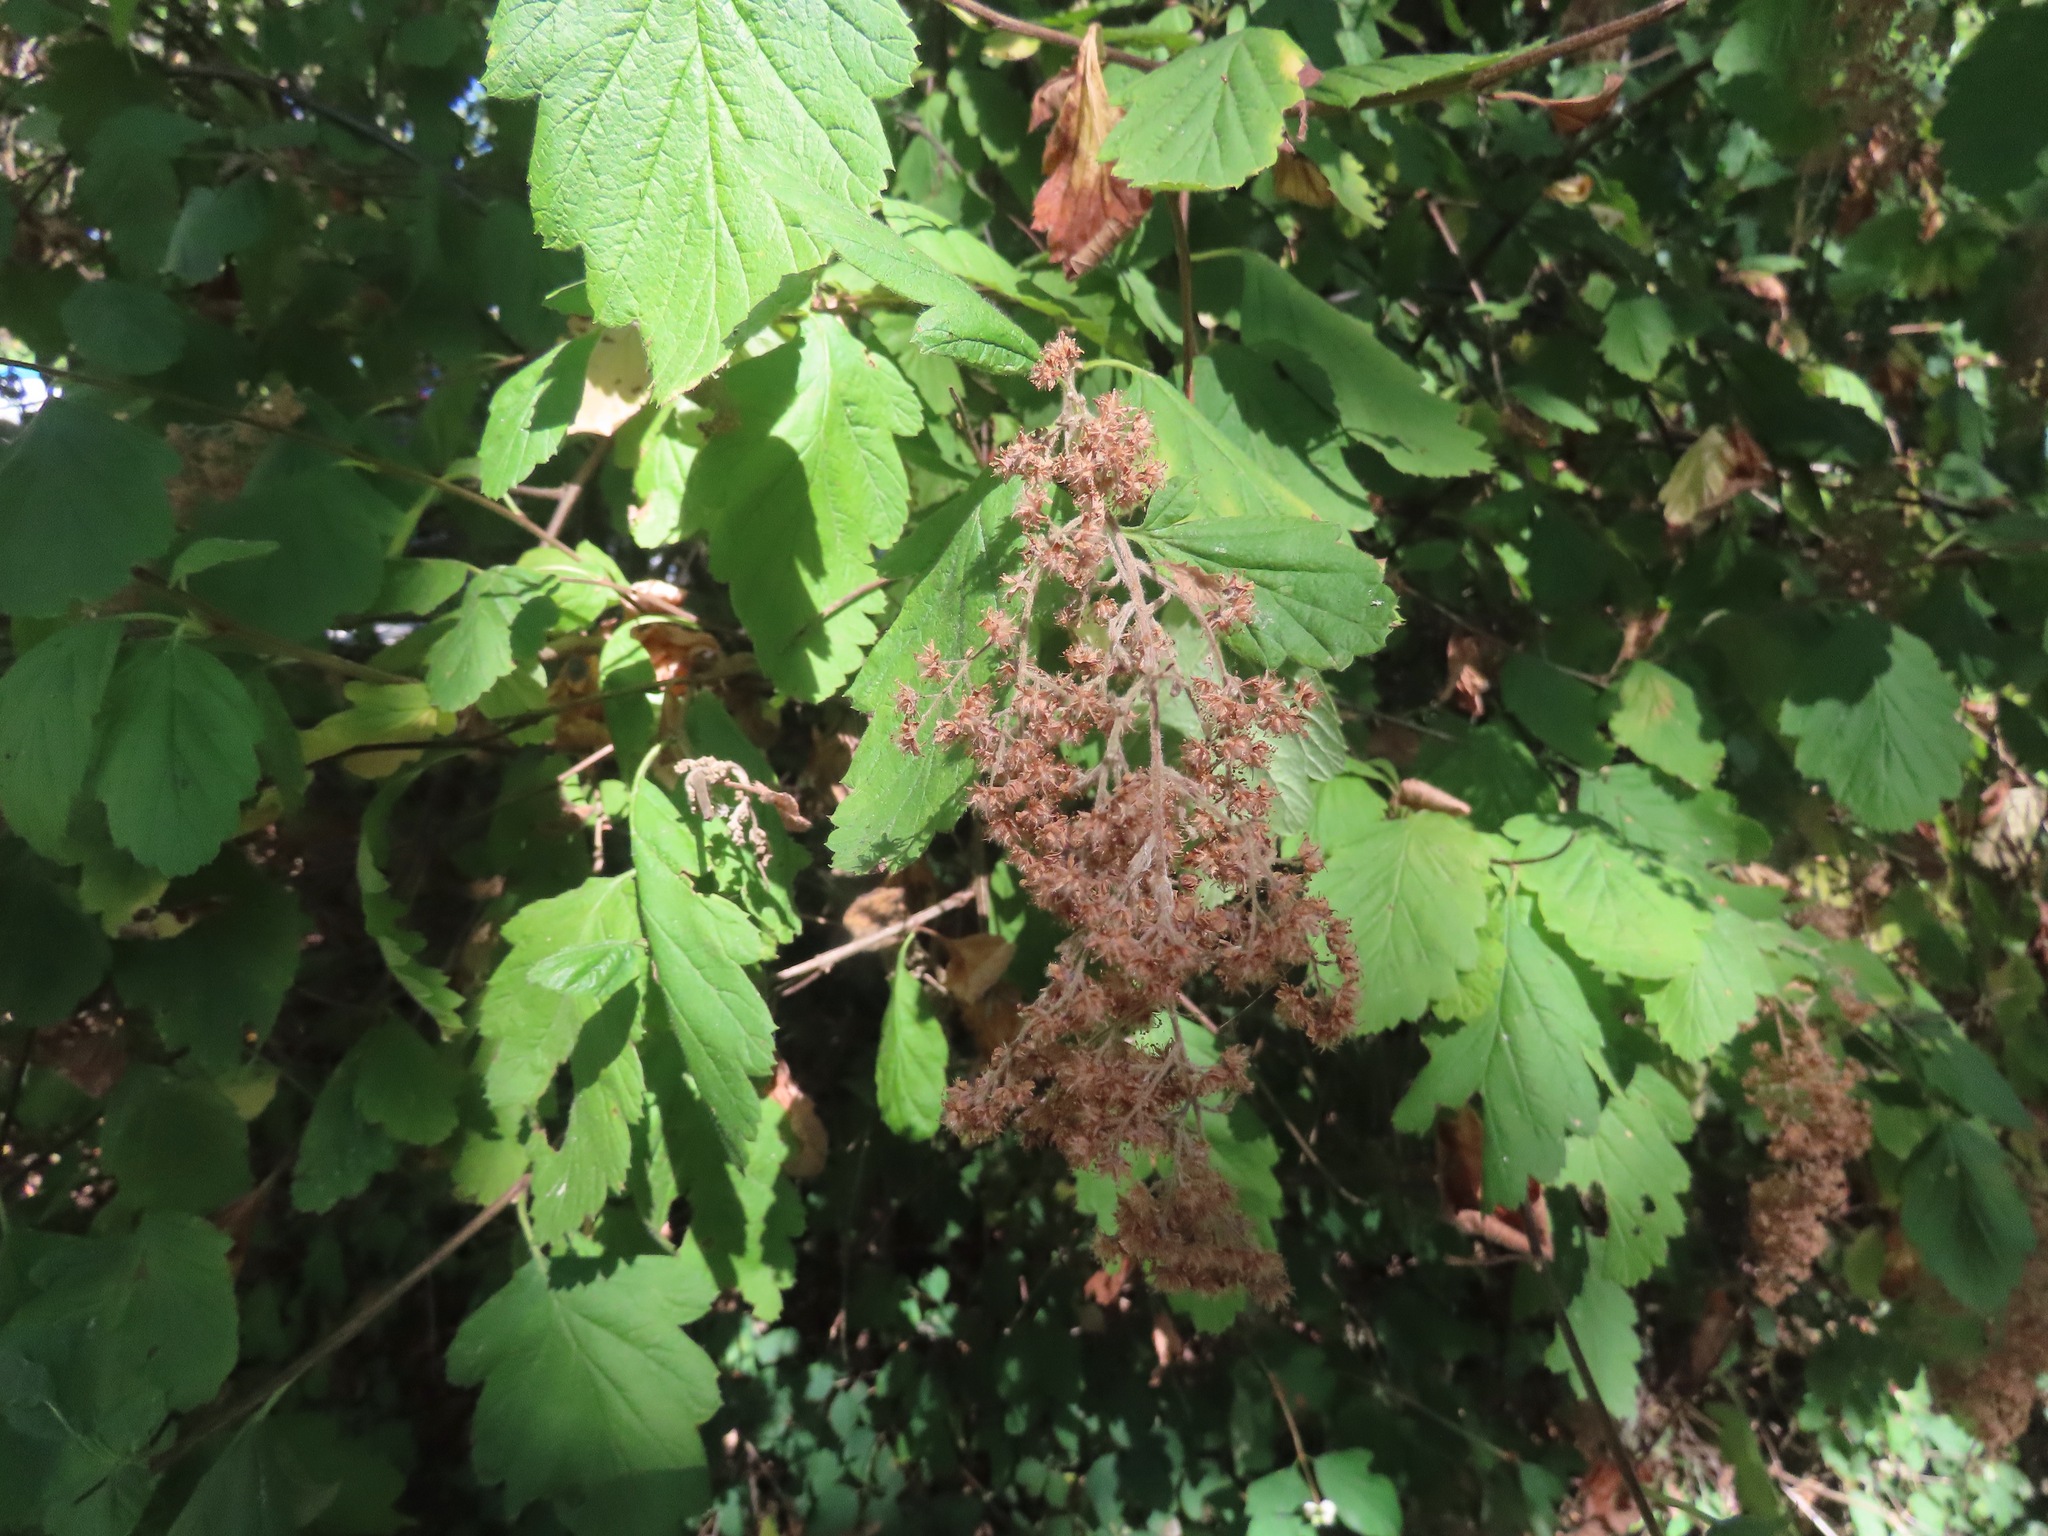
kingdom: Plantae
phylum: Tracheophyta
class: Magnoliopsida
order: Rosales
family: Rosaceae
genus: Holodiscus
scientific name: Holodiscus discolor
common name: Oceanspray
